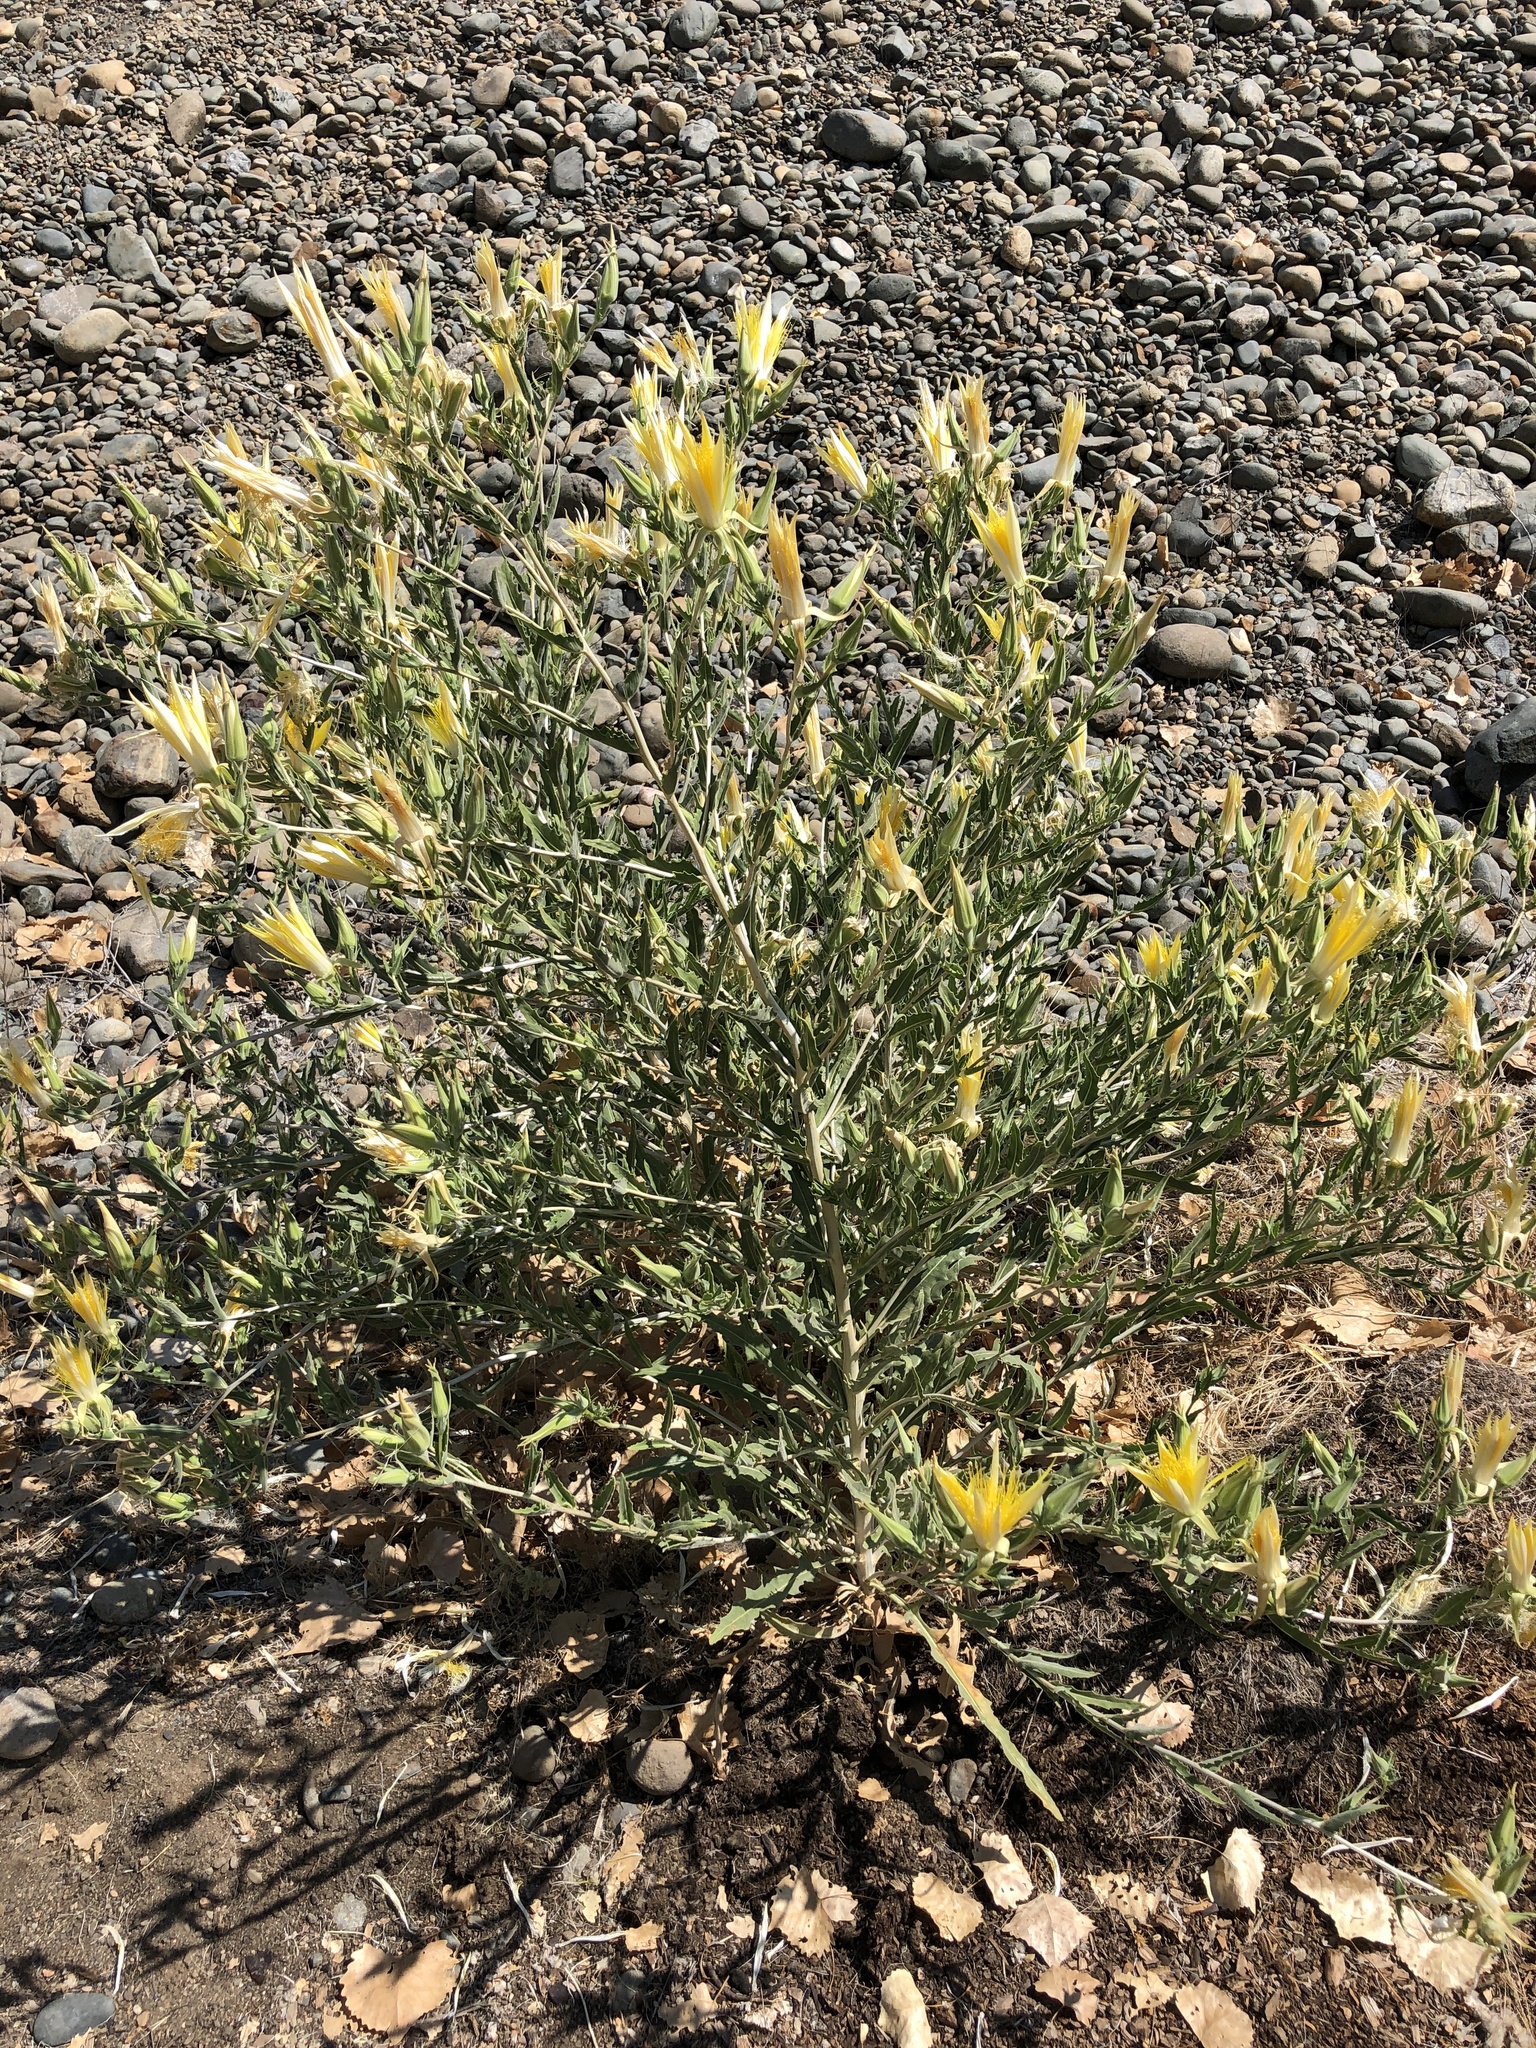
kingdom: Plantae
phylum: Tracheophyta
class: Magnoliopsida
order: Cornales
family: Loasaceae
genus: Mentzelia
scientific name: Mentzelia laevicaulis
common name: Smooth-stem blazingstar
